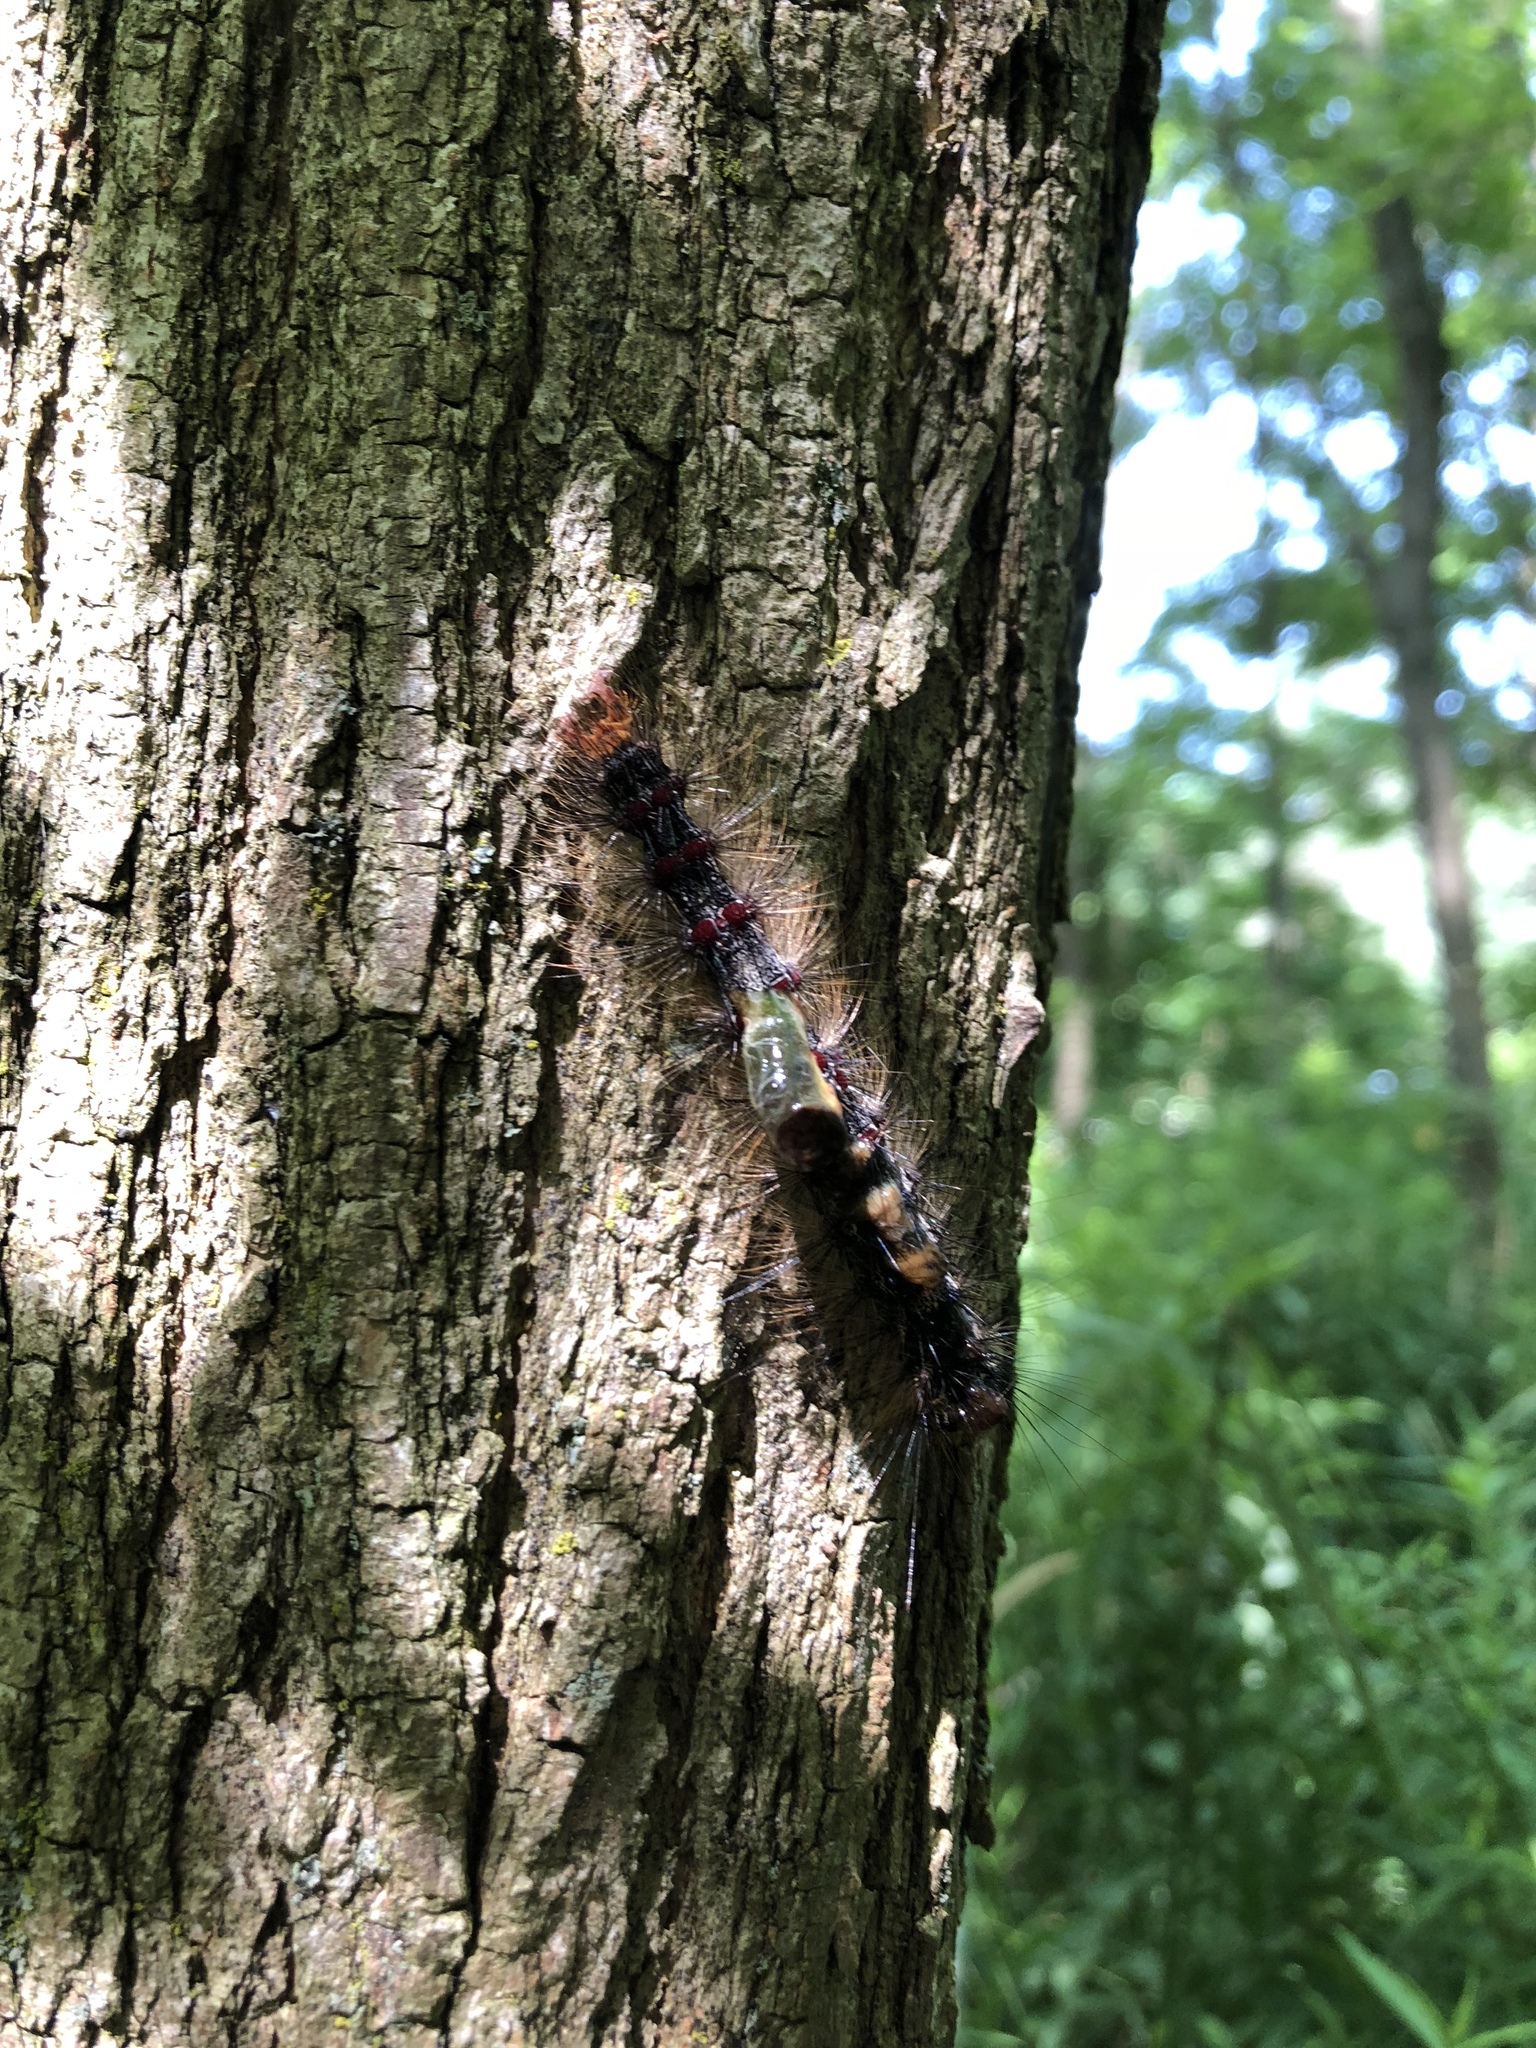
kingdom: Animalia
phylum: Arthropoda
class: Insecta
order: Lepidoptera
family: Erebidae
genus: Lymantria
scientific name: Lymantria dispar
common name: Gypsy moth
